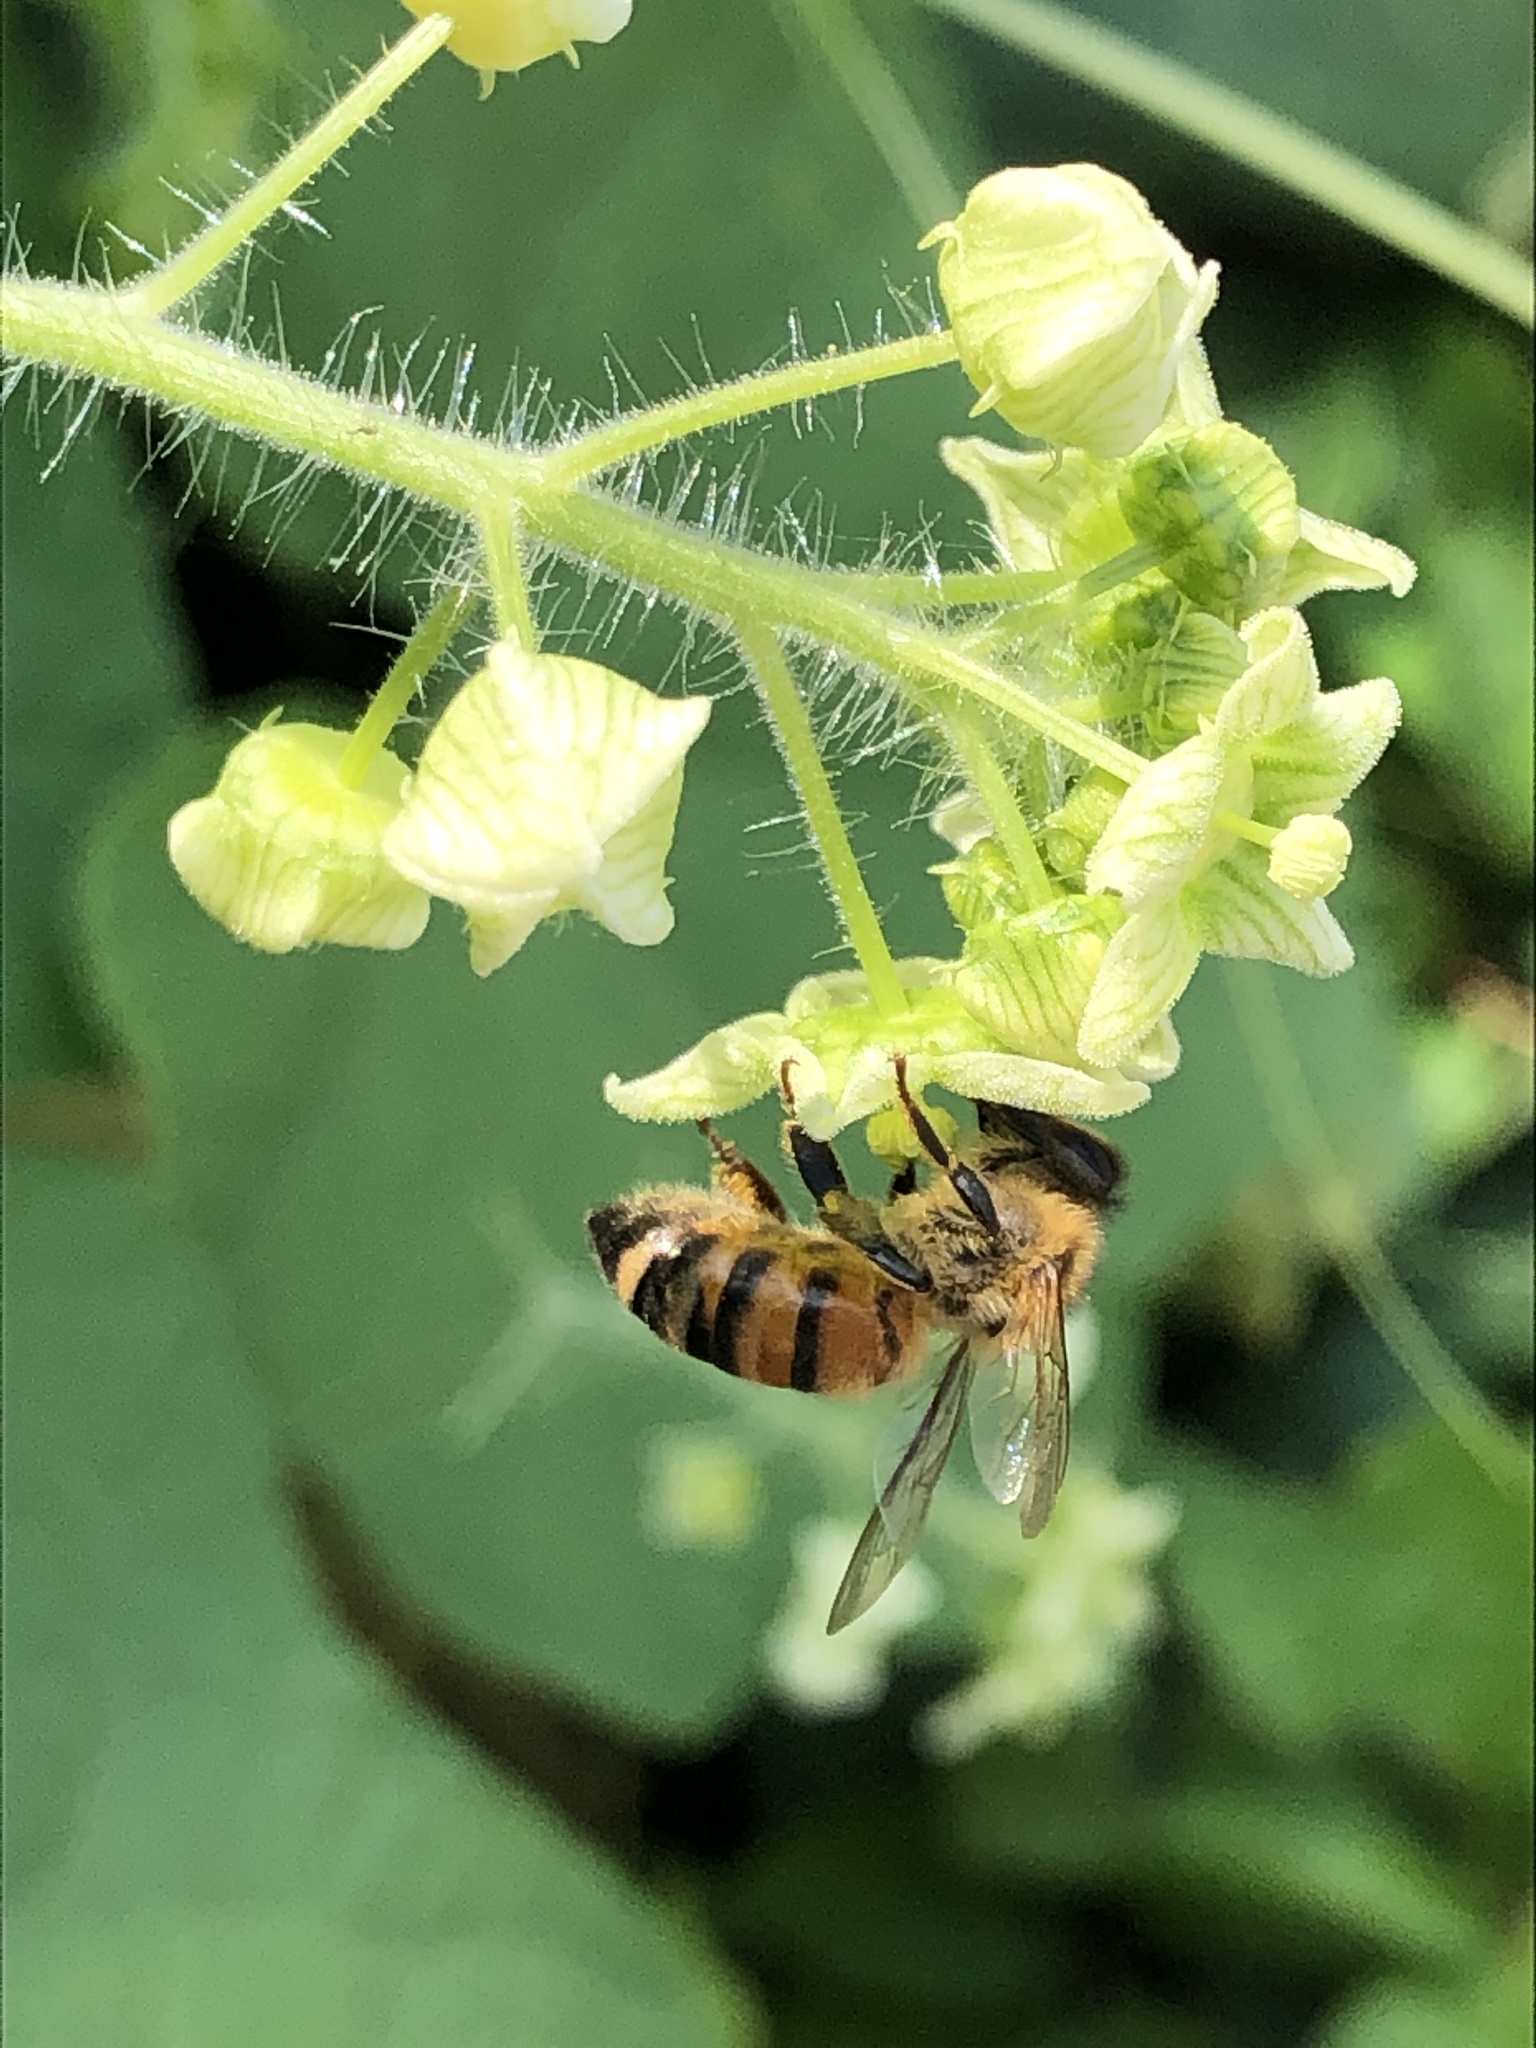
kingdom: Animalia
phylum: Arthropoda
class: Insecta
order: Hymenoptera
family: Apidae
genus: Apis
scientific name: Apis mellifera
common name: Honey bee
